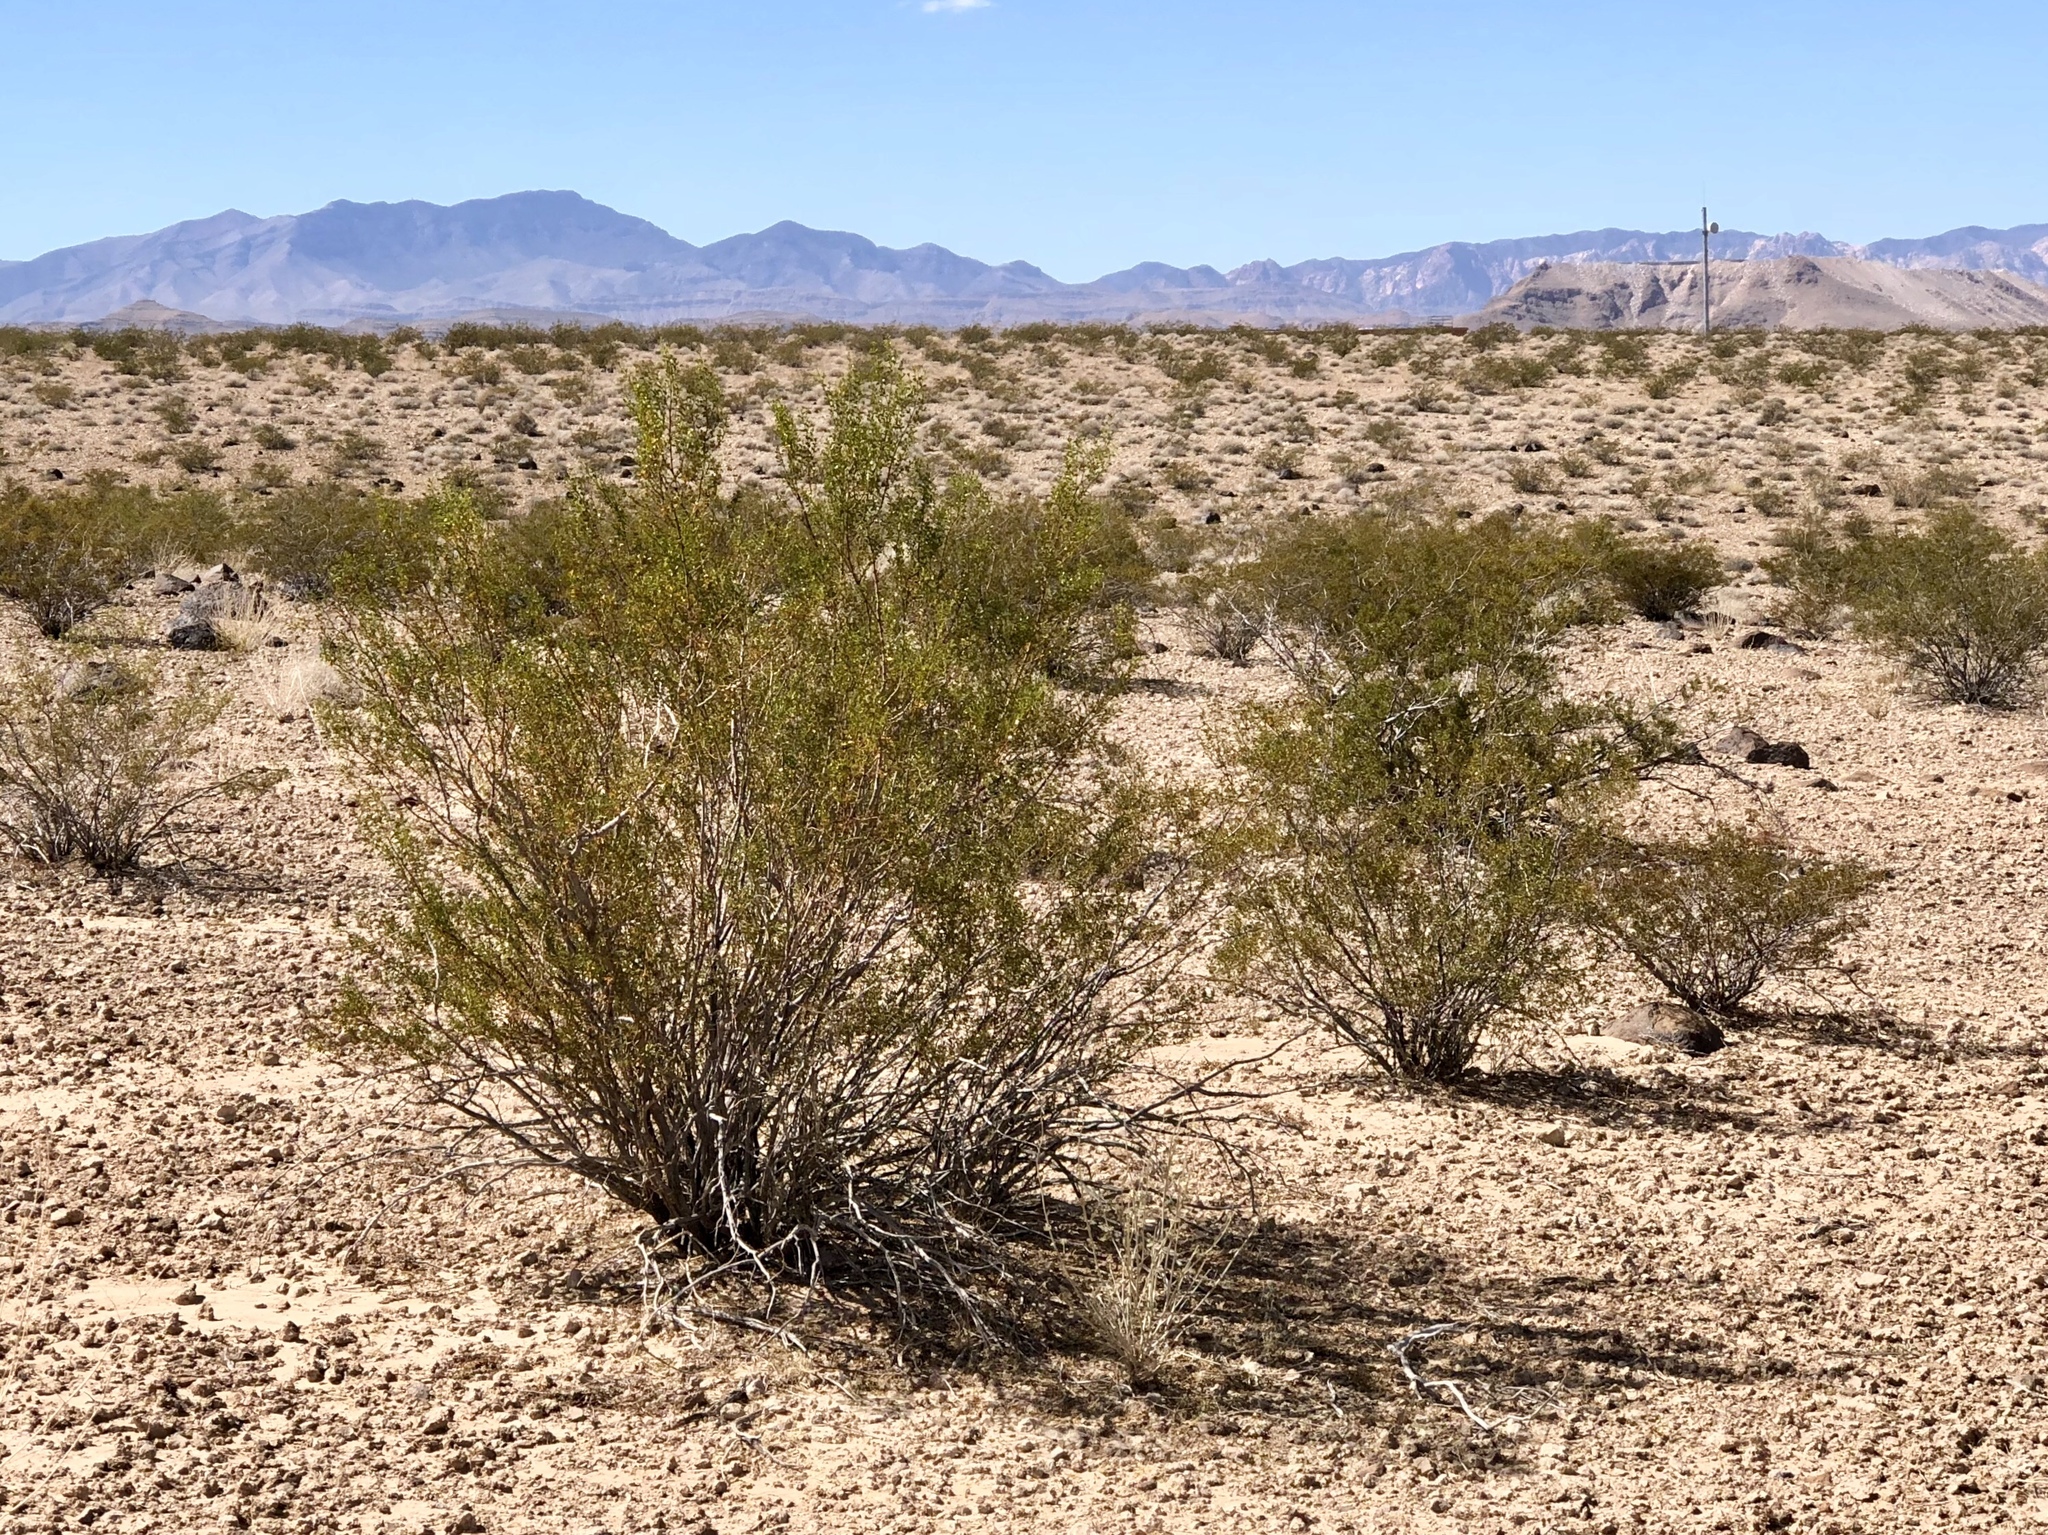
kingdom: Plantae
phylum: Tracheophyta
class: Magnoliopsida
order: Zygophyllales
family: Zygophyllaceae
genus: Larrea
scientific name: Larrea tridentata
